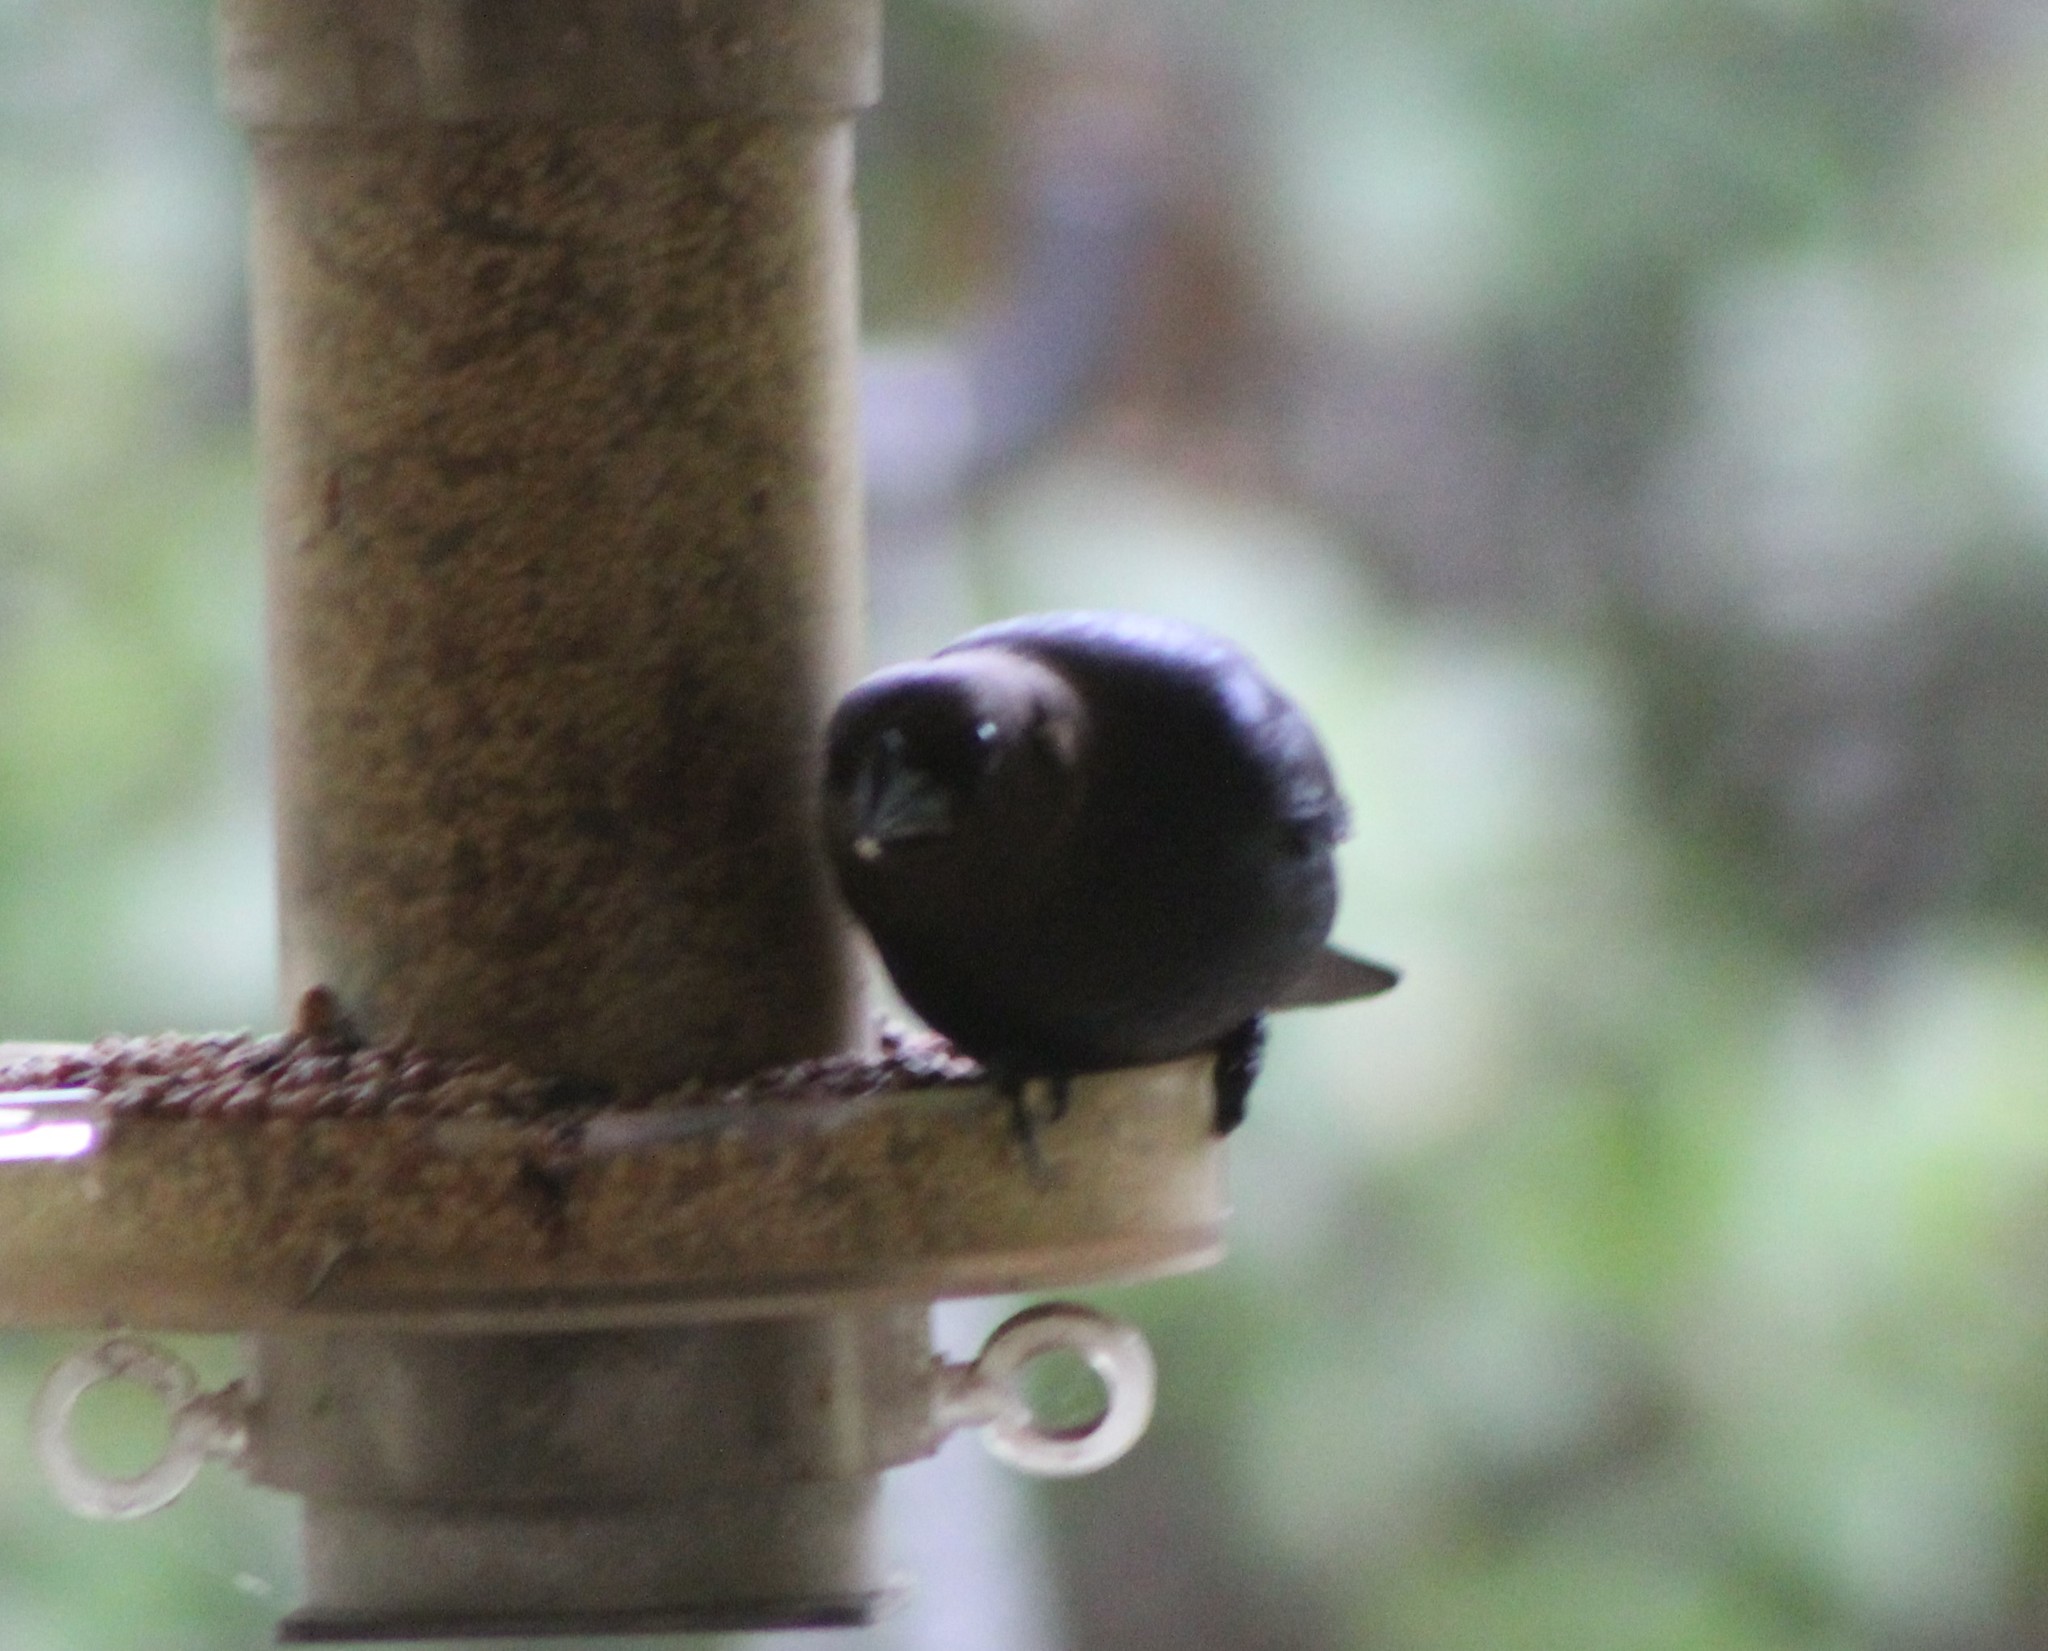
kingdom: Animalia
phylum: Chordata
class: Aves
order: Passeriformes
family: Icteridae
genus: Molothrus
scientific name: Molothrus ater
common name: Brown-headed cowbird
